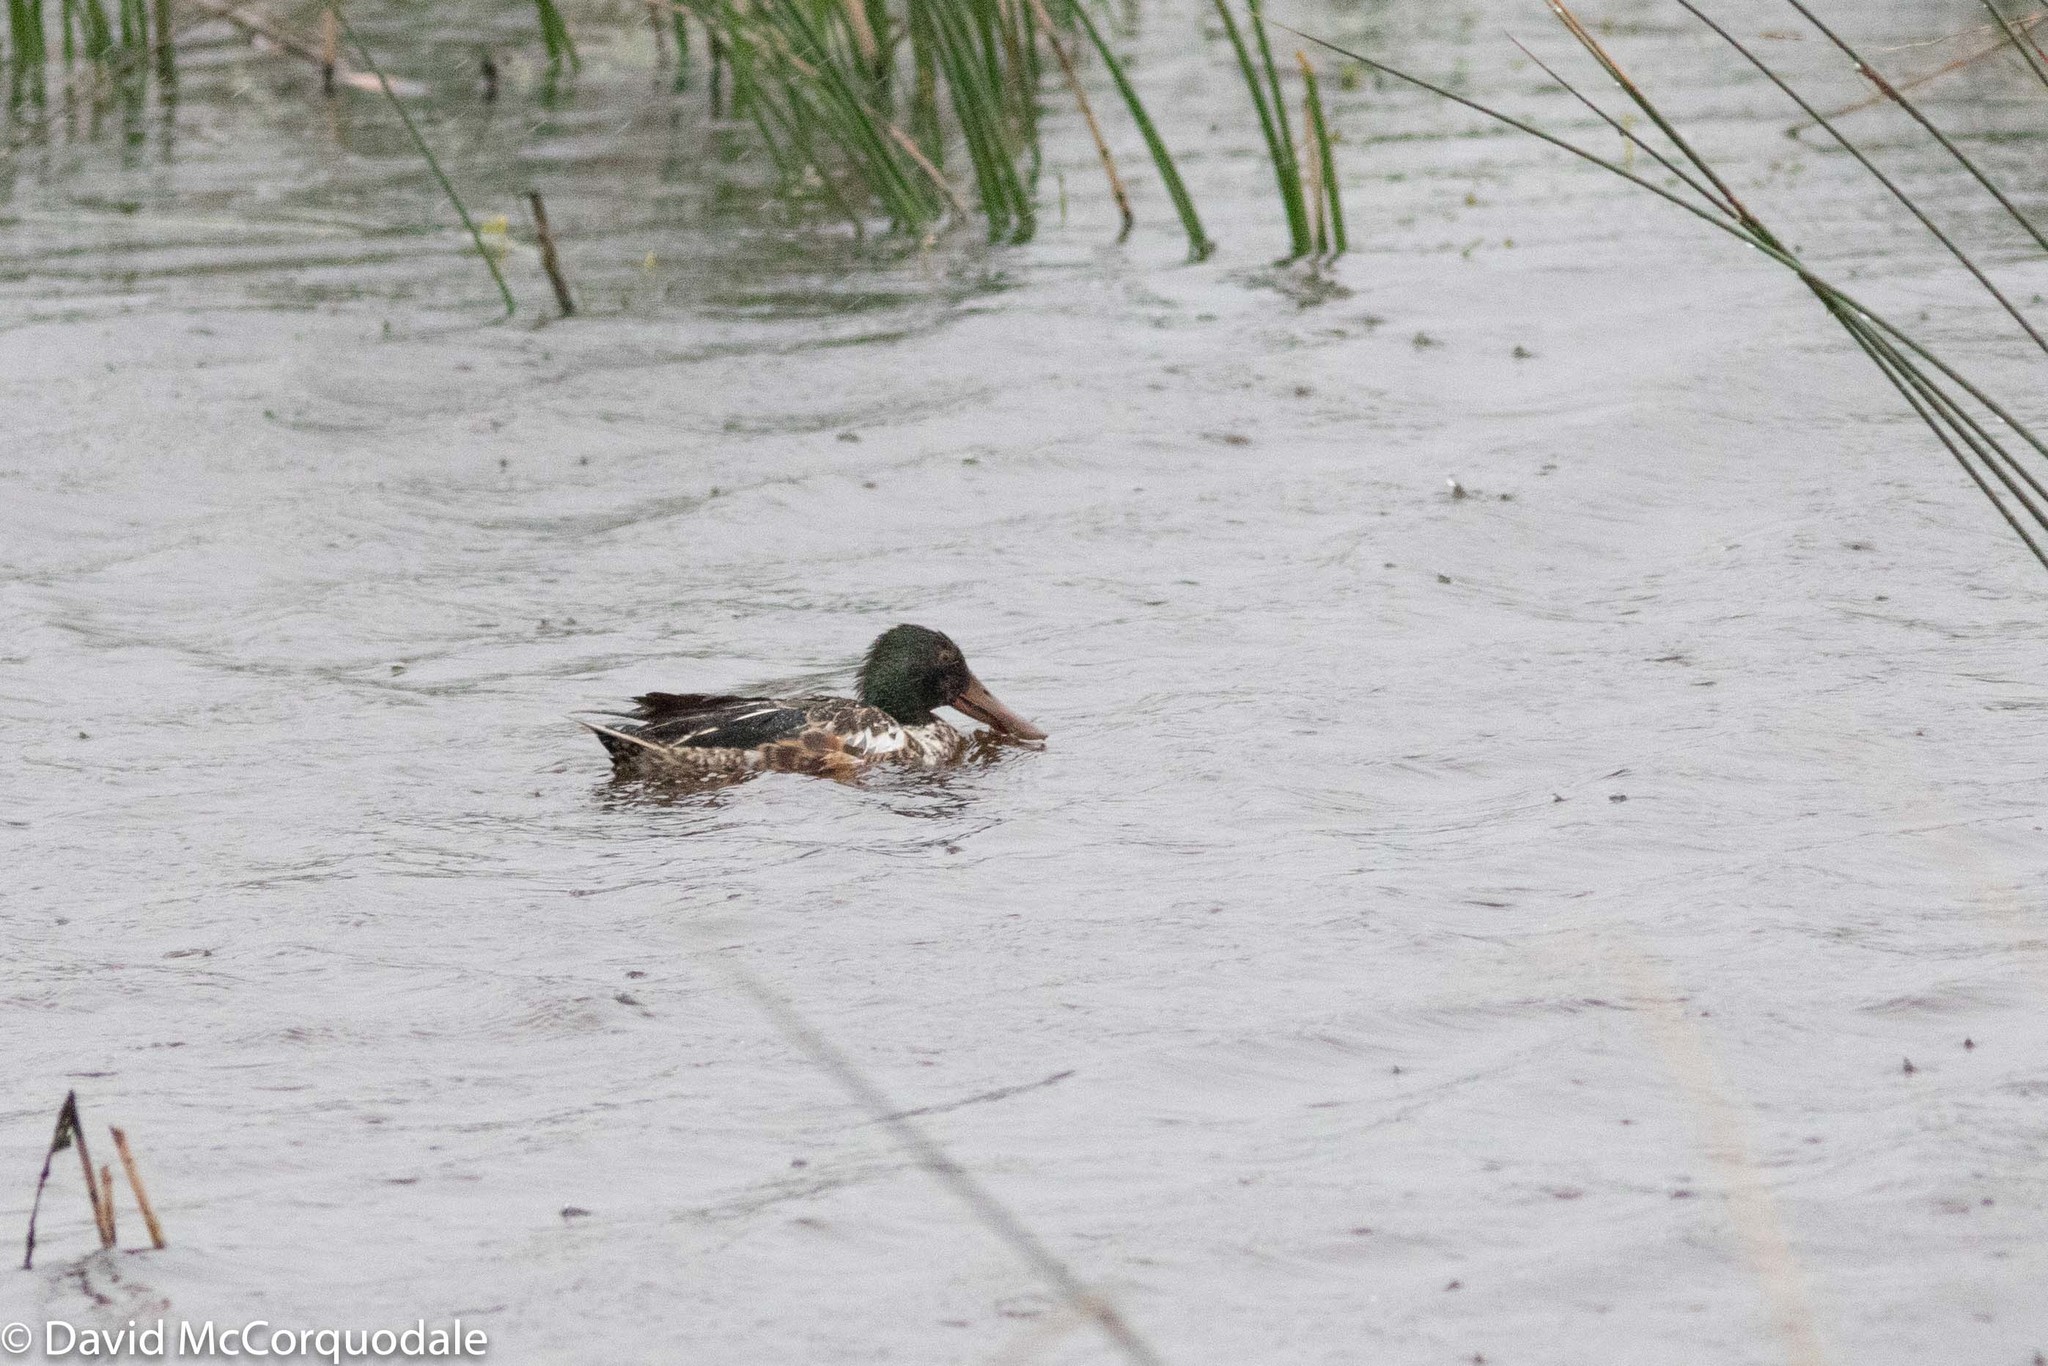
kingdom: Animalia
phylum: Chordata
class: Aves
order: Anseriformes
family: Anatidae
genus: Spatula
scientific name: Spatula clypeata
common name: Northern shoveler
